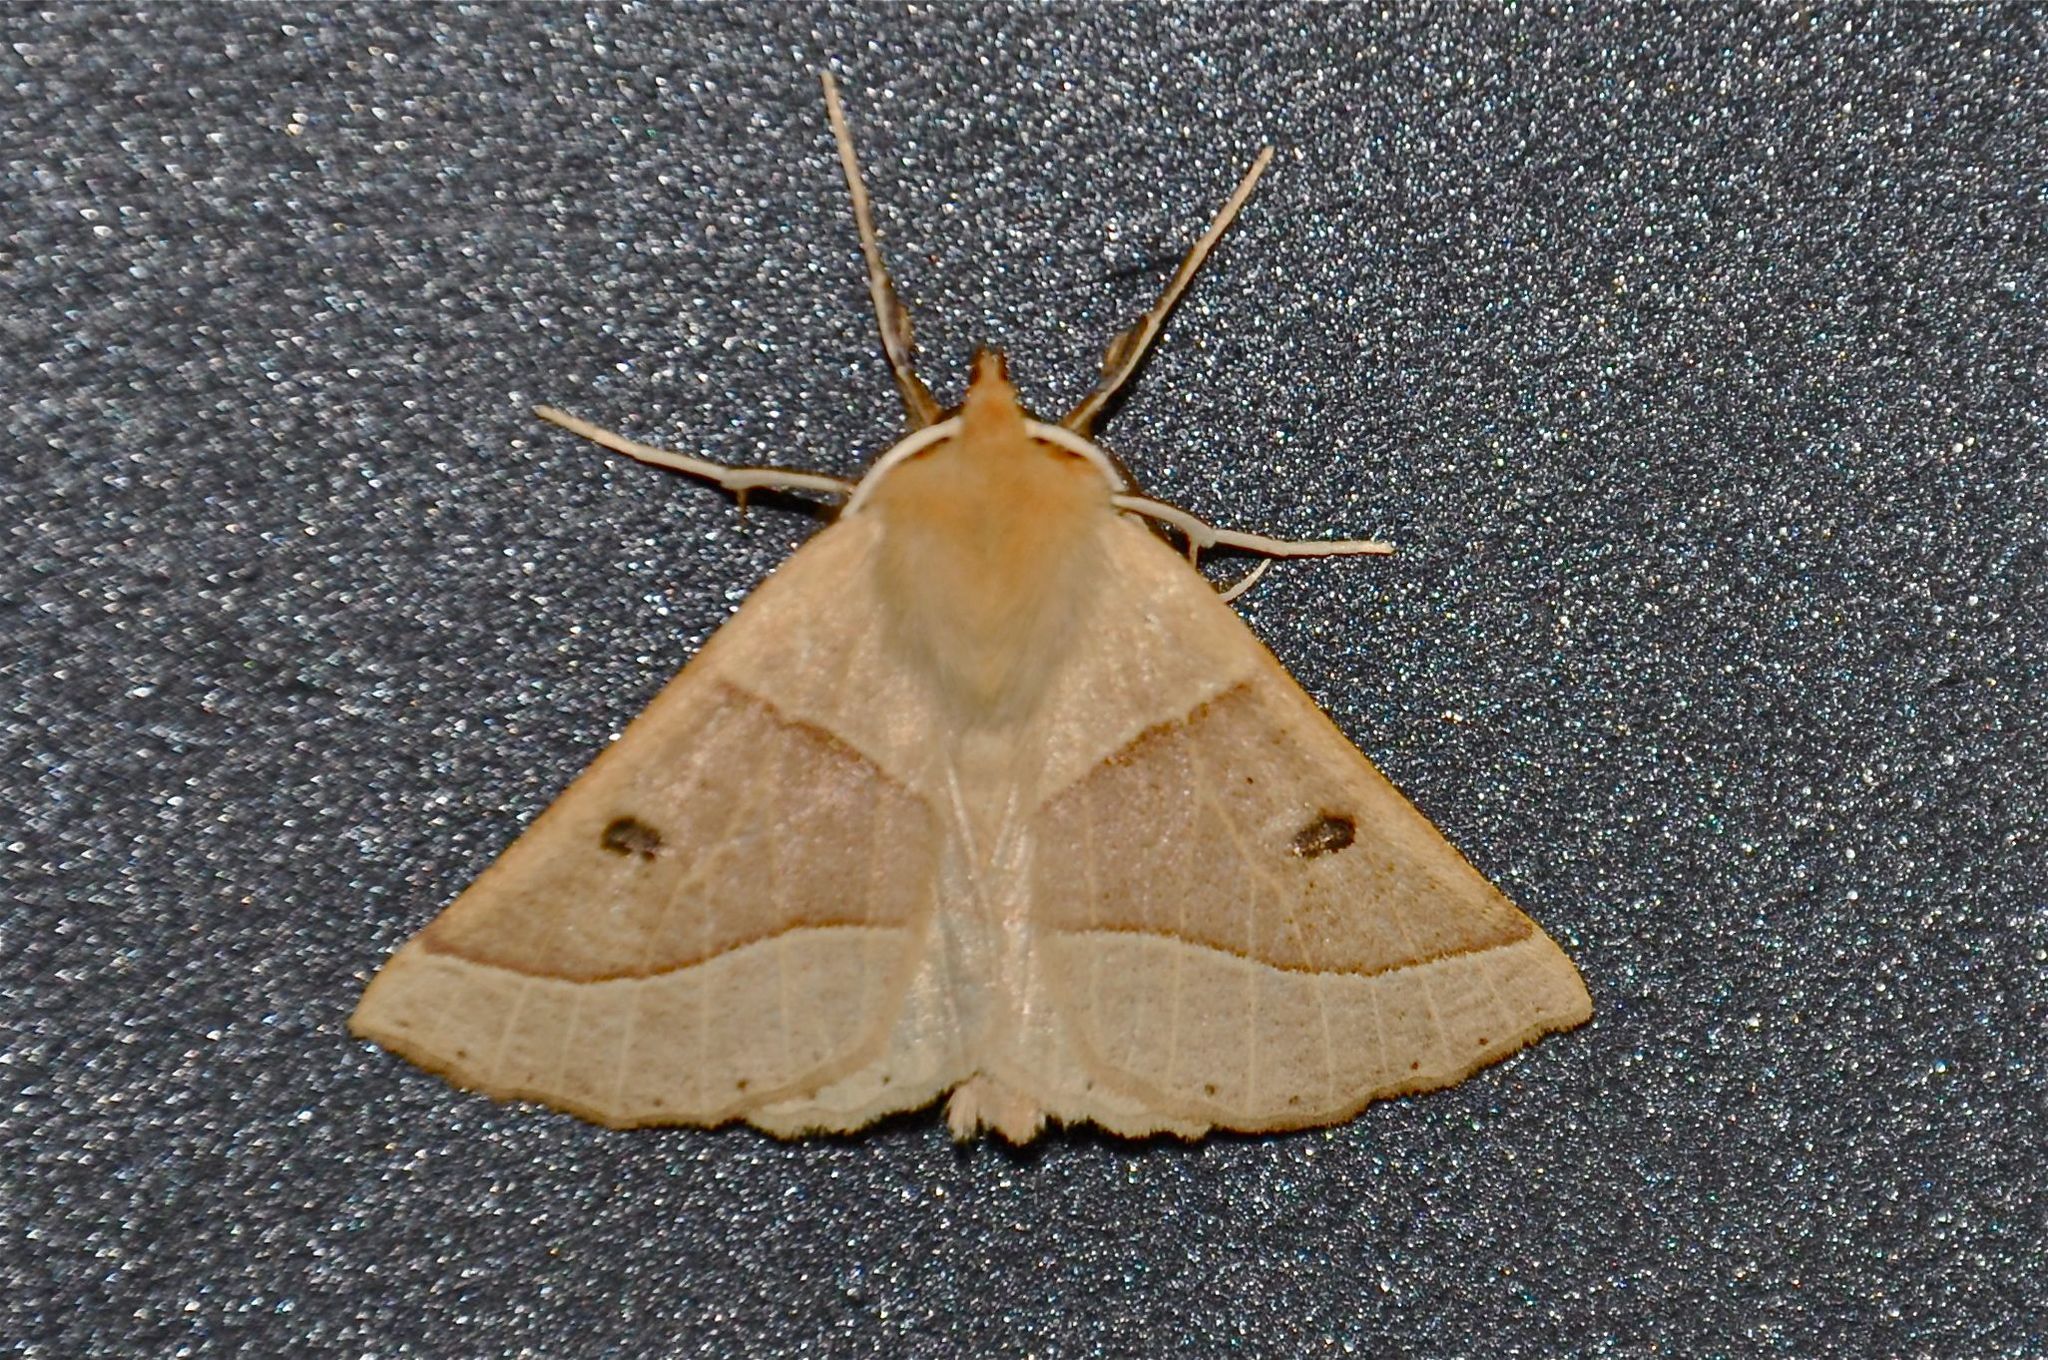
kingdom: Animalia
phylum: Arthropoda
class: Insecta
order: Lepidoptera
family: Geometridae
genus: Crocallis
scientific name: Crocallis elinguaria
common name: Scalloped oak
